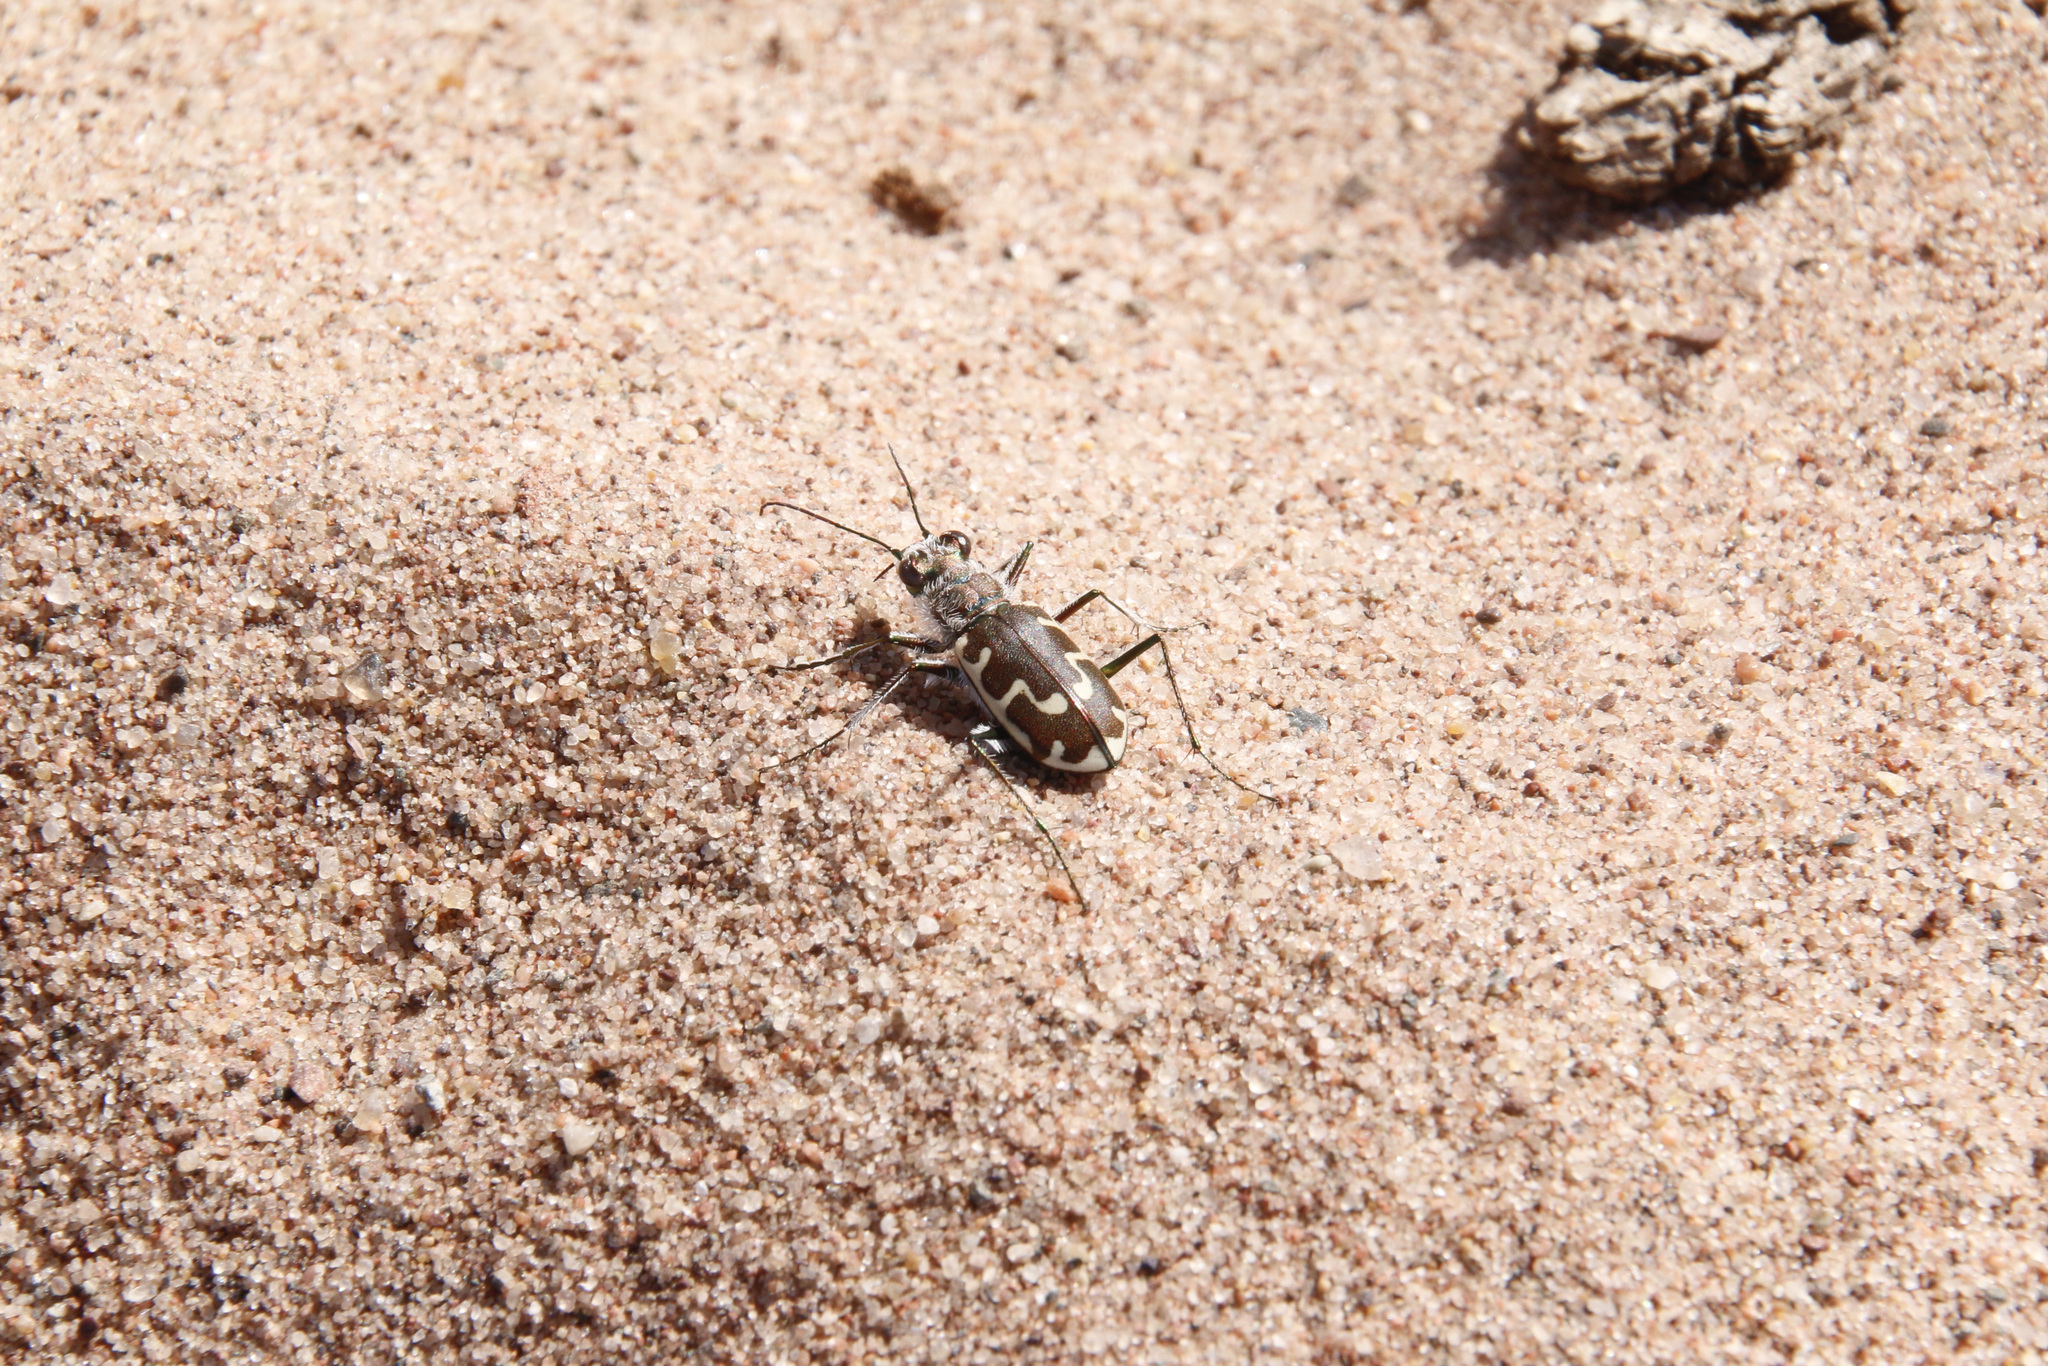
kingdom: Animalia
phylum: Arthropoda
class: Insecta
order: Coleoptera
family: Carabidae
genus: Cicindela
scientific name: Cicindela hirticollis
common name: Hairy-necked tiger beetle
